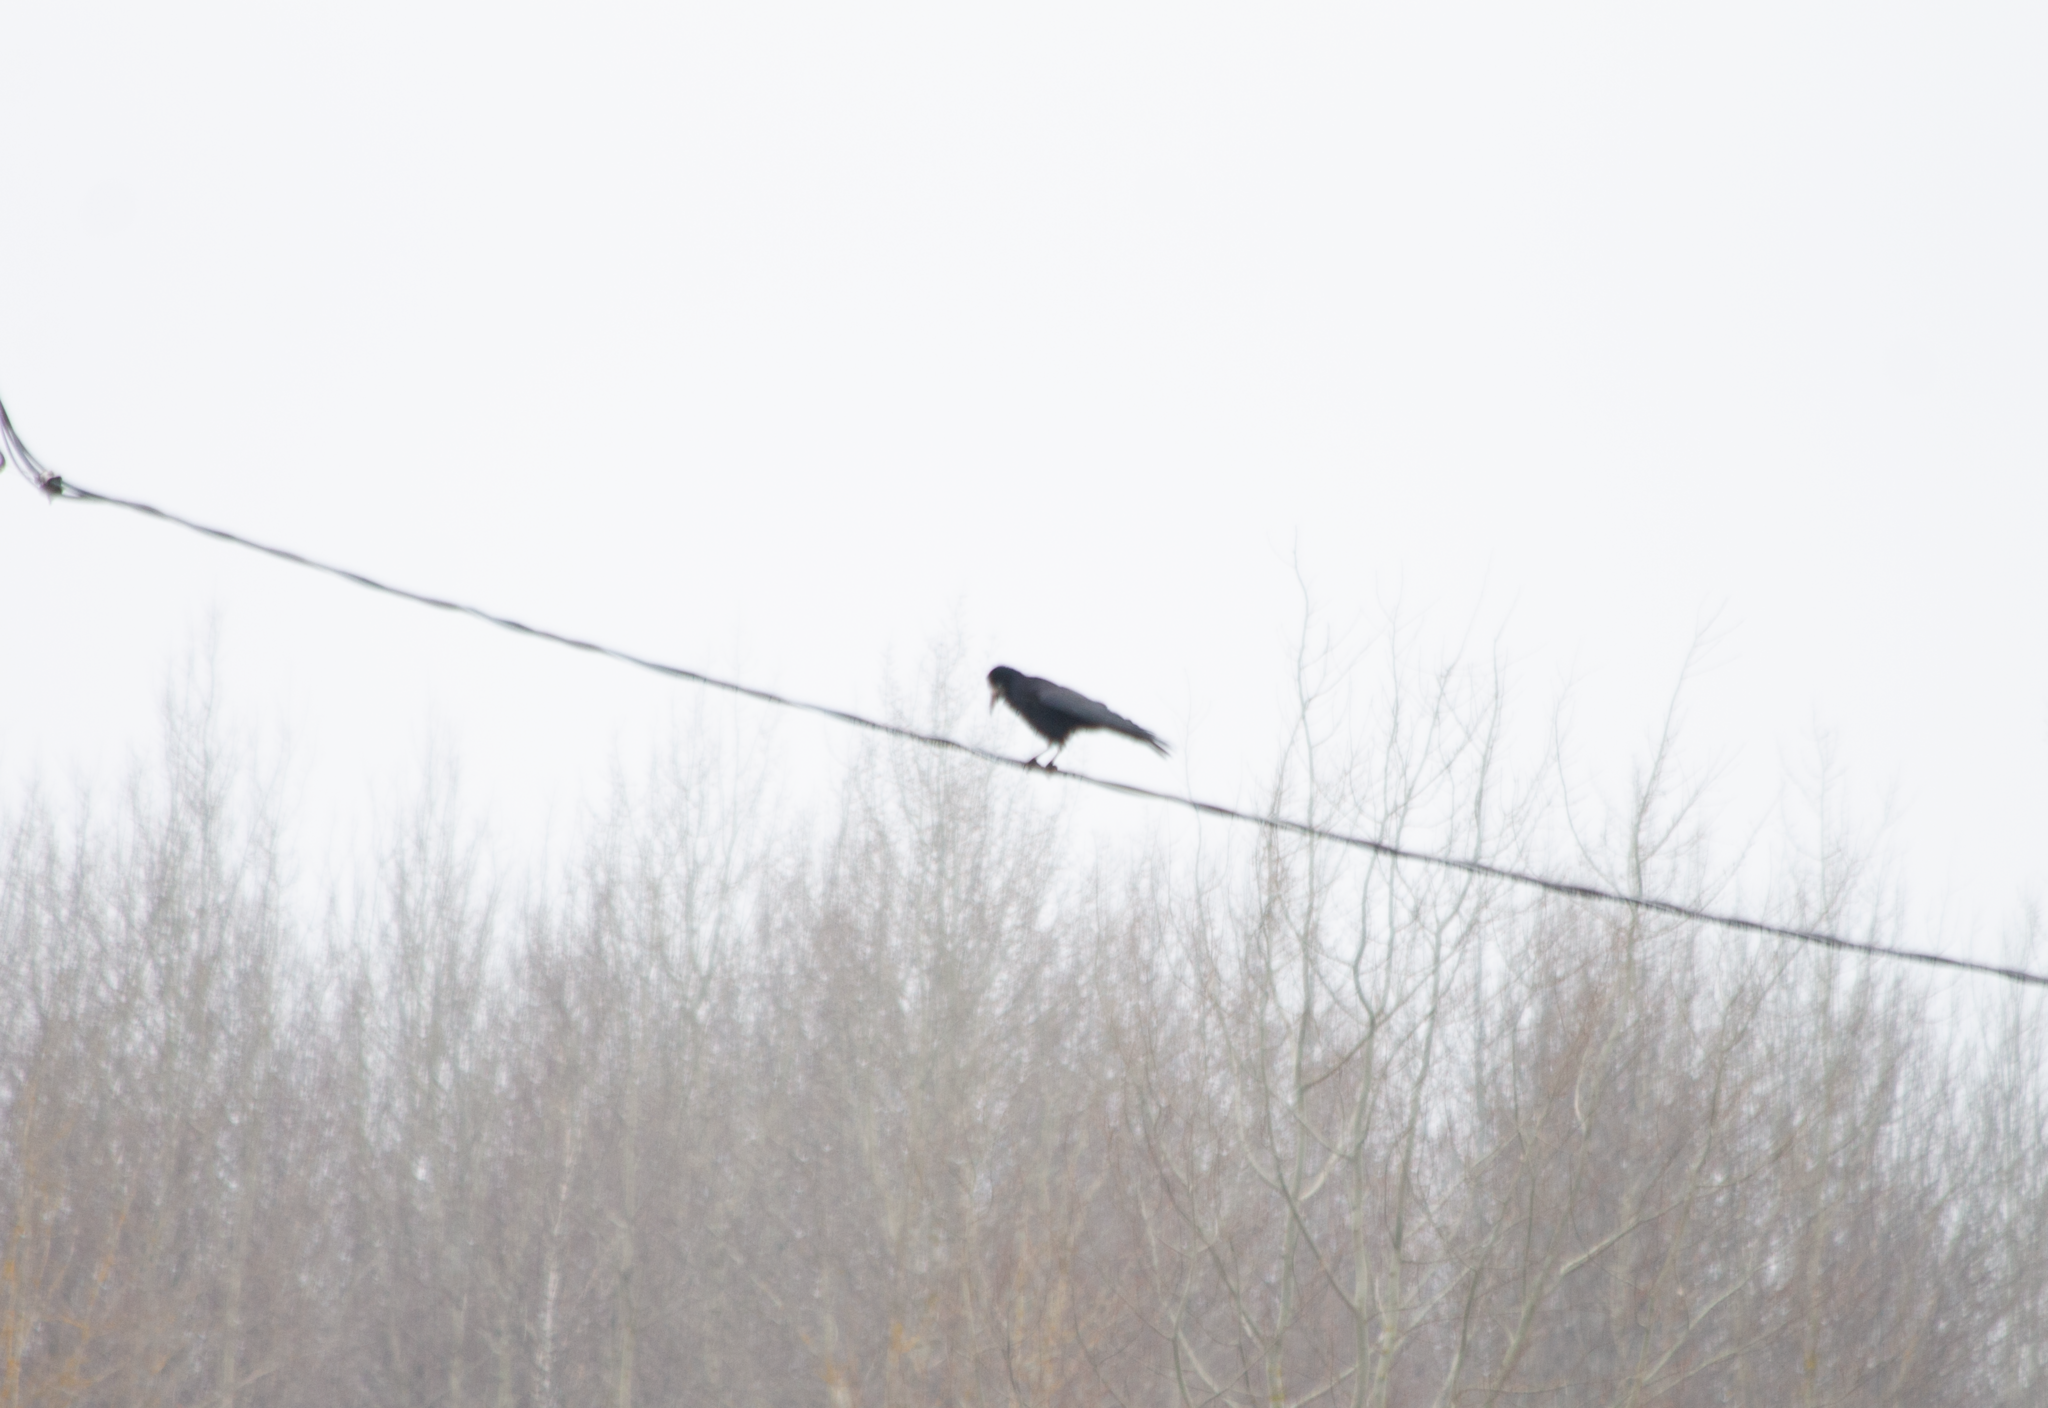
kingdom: Animalia
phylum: Chordata
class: Aves
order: Passeriformes
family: Corvidae
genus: Corvus
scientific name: Corvus frugilegus
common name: Rook
